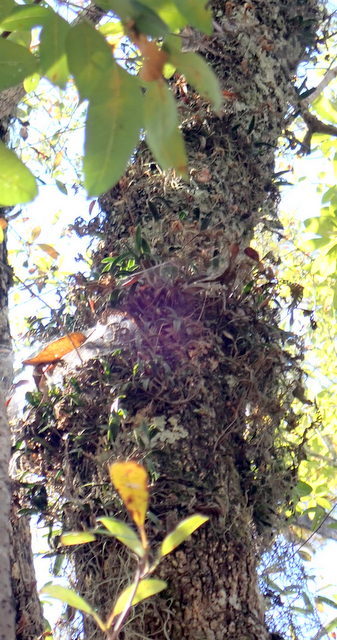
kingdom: Plantae
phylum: Tracheophyta
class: Liliopsida
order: Asparagales
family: Orchidaceae
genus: Epidendrum
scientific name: Epidendrum conopseum
